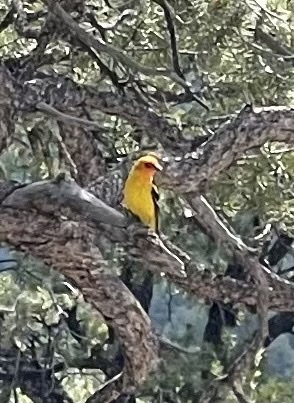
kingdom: Animalia
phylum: Chordata
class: Aves
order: Passeriformes
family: Cardinalidae
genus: Piranga
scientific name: Piranga ludoviciana
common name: Western tanager
